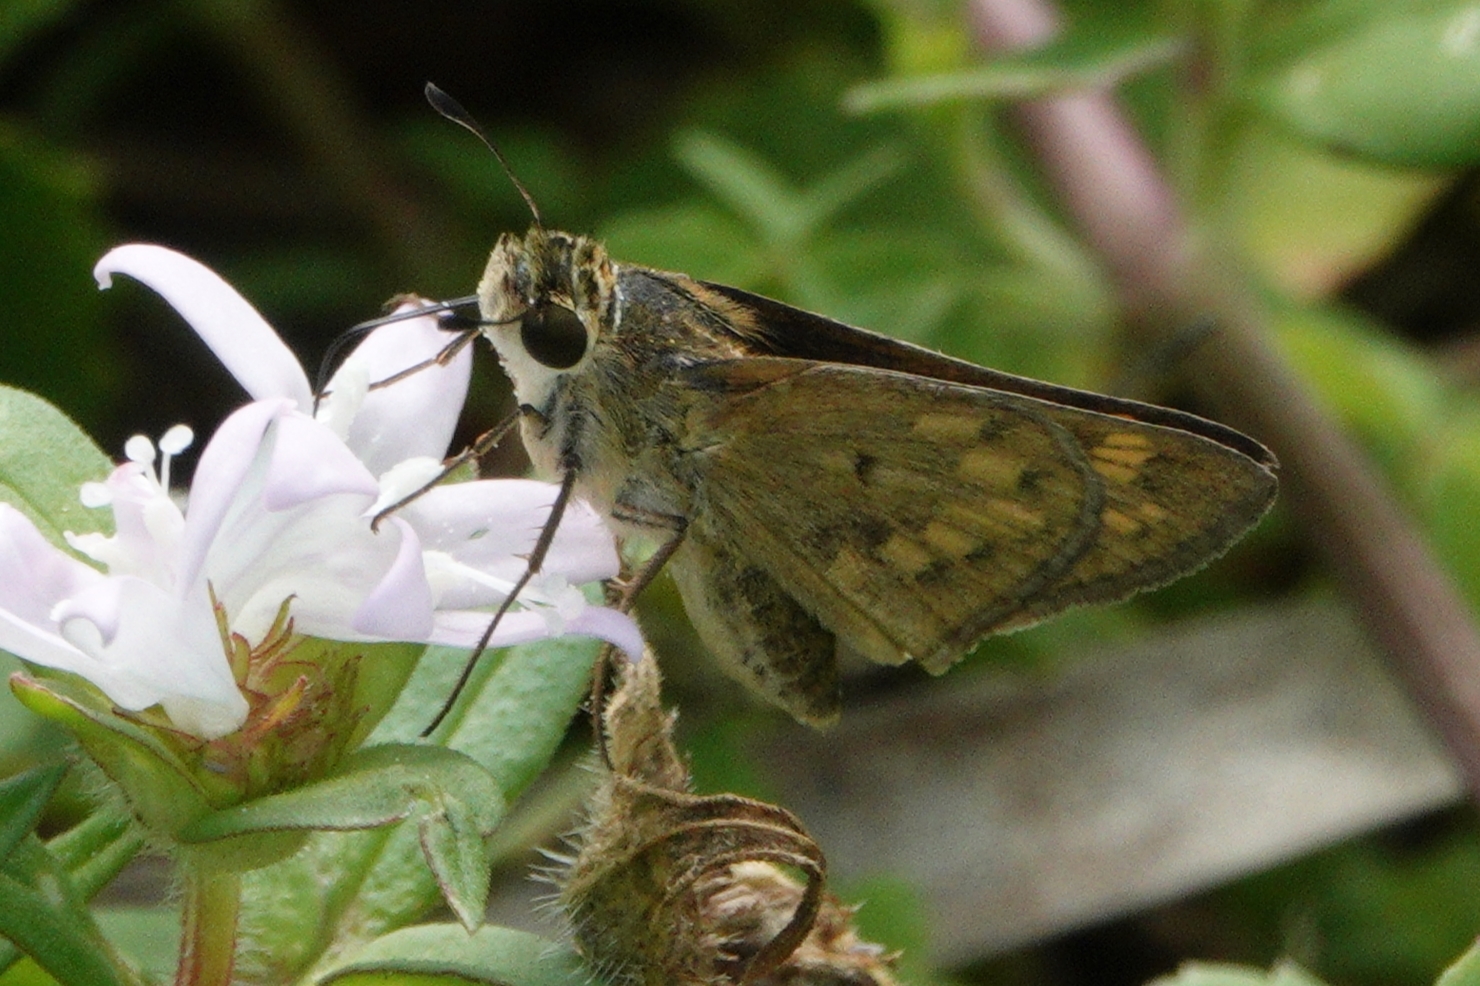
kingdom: Animalia
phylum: Arthropoda
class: Insecta
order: Lepidoptera
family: Hesperiidae
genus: Hylephila
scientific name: Hylephila phyleus
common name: Fiery skipper
